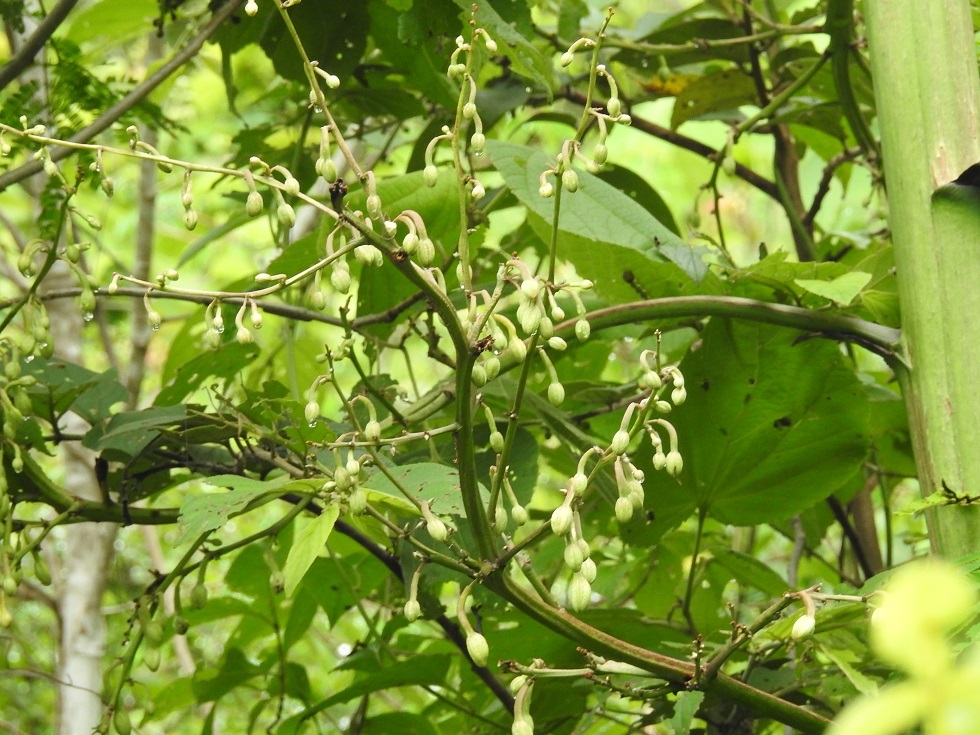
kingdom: Plantae
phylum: Tracheophyta
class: Liliopsida
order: Asparagales
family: Asparagaceae
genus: Furcraea
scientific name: Furcraea guatemalensis
